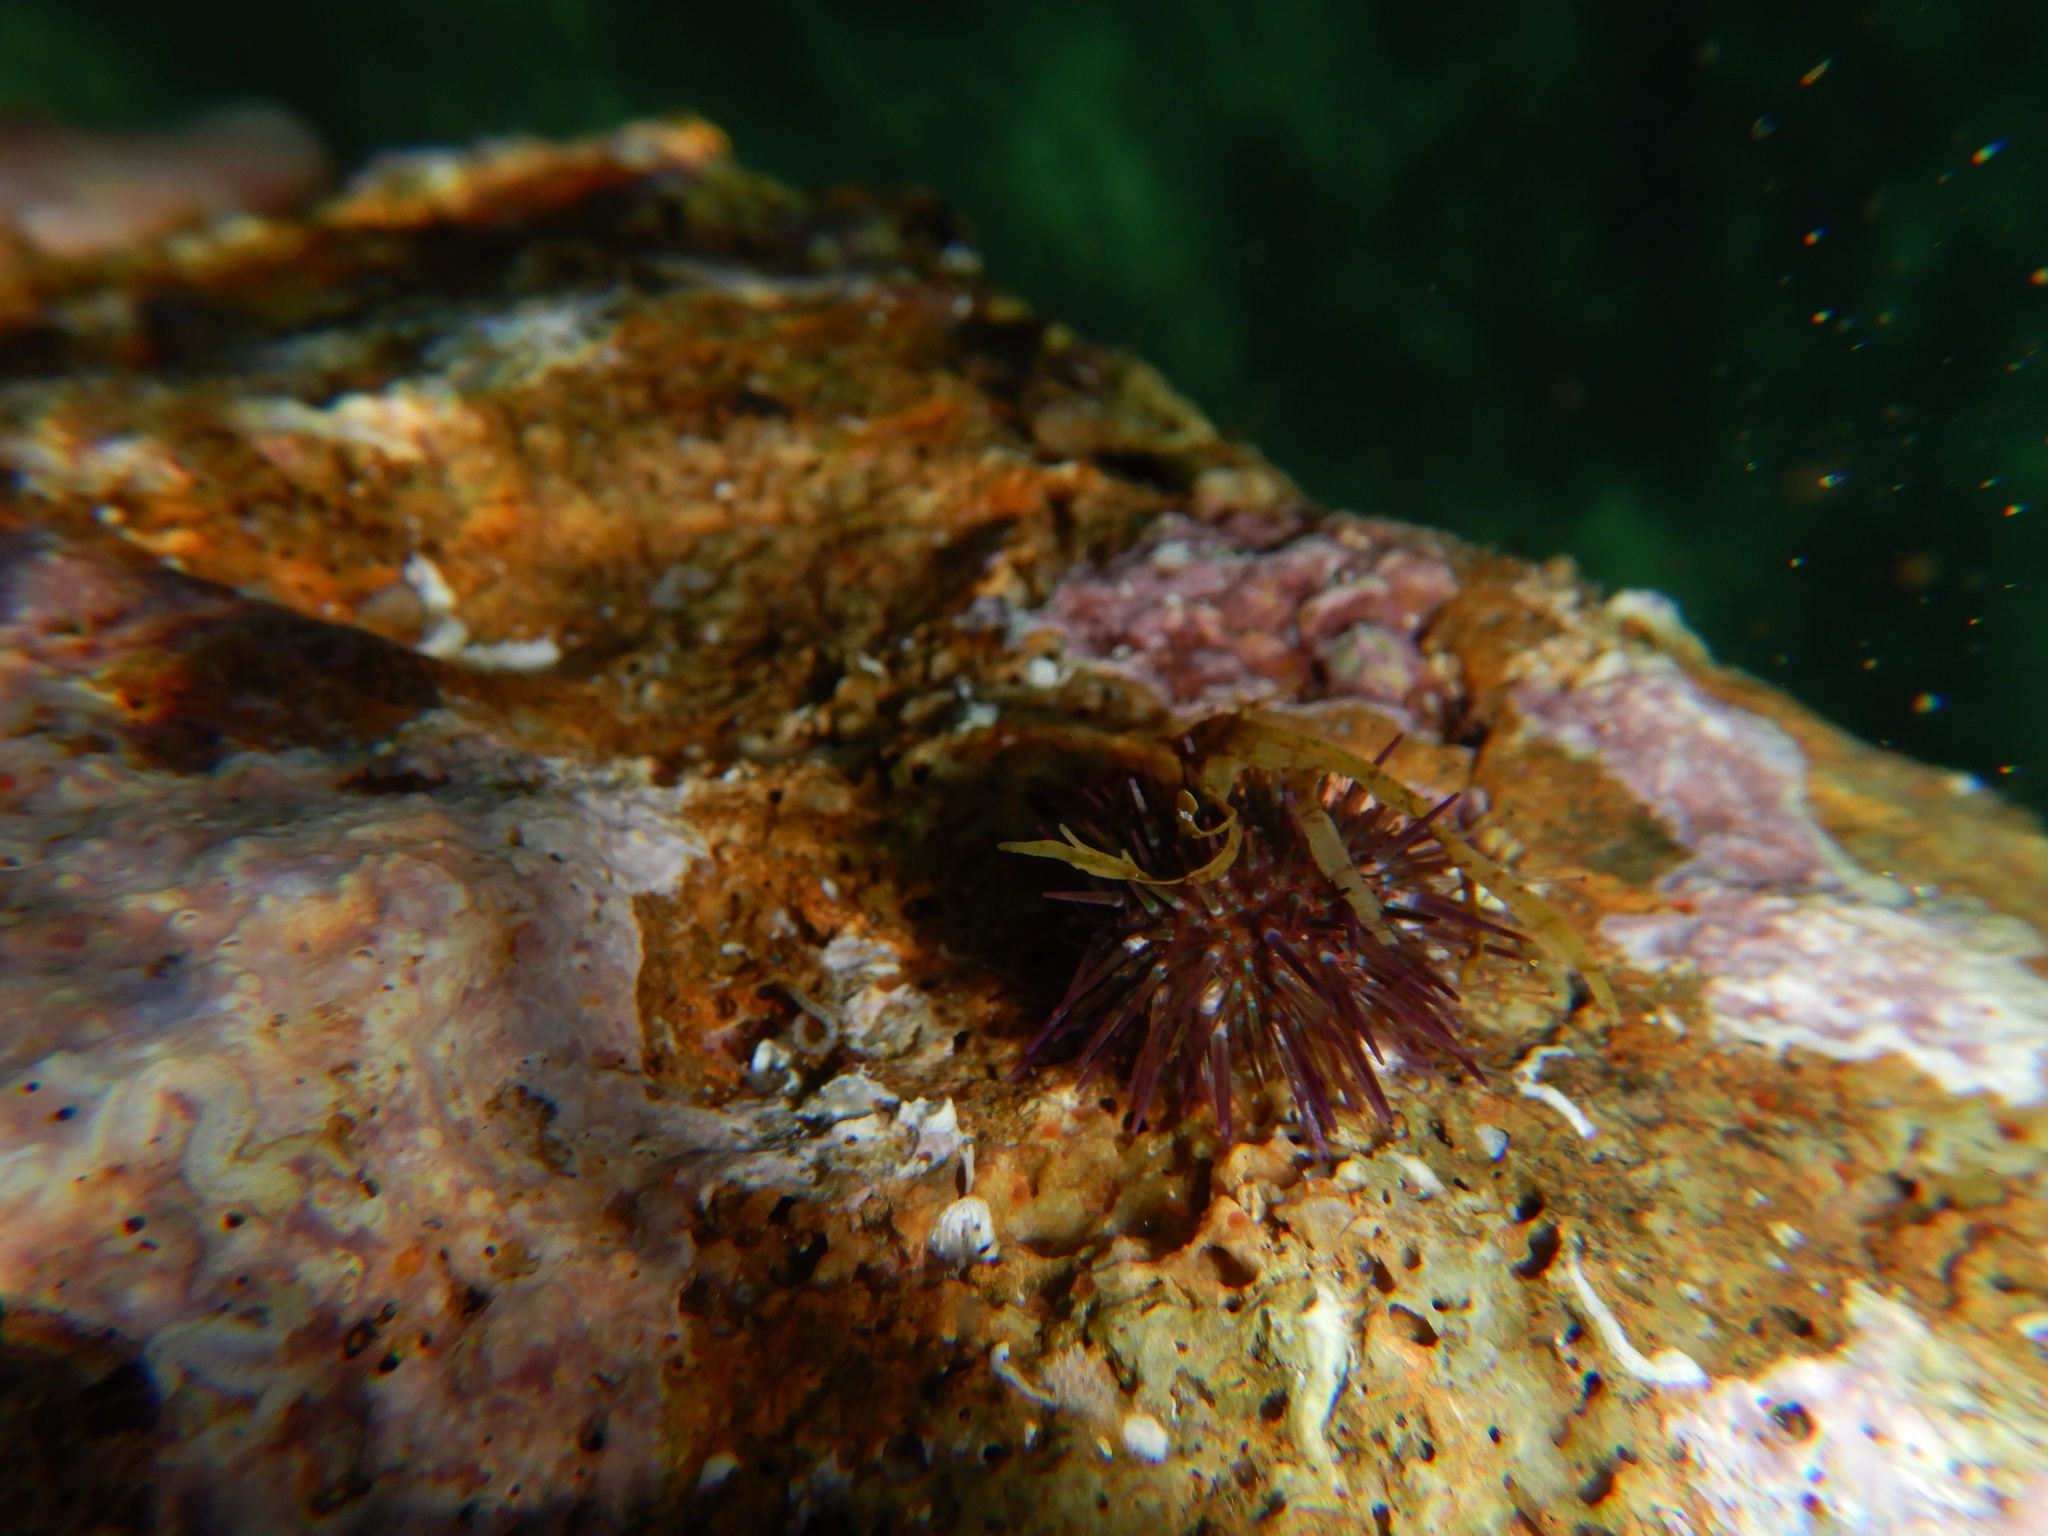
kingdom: Animalia
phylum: Echinodermata
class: Echinoidea
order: Camarodonta
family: Parechinidae
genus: Paracentrotus
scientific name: Paracentrotus lividus
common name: Purple sea urchin
